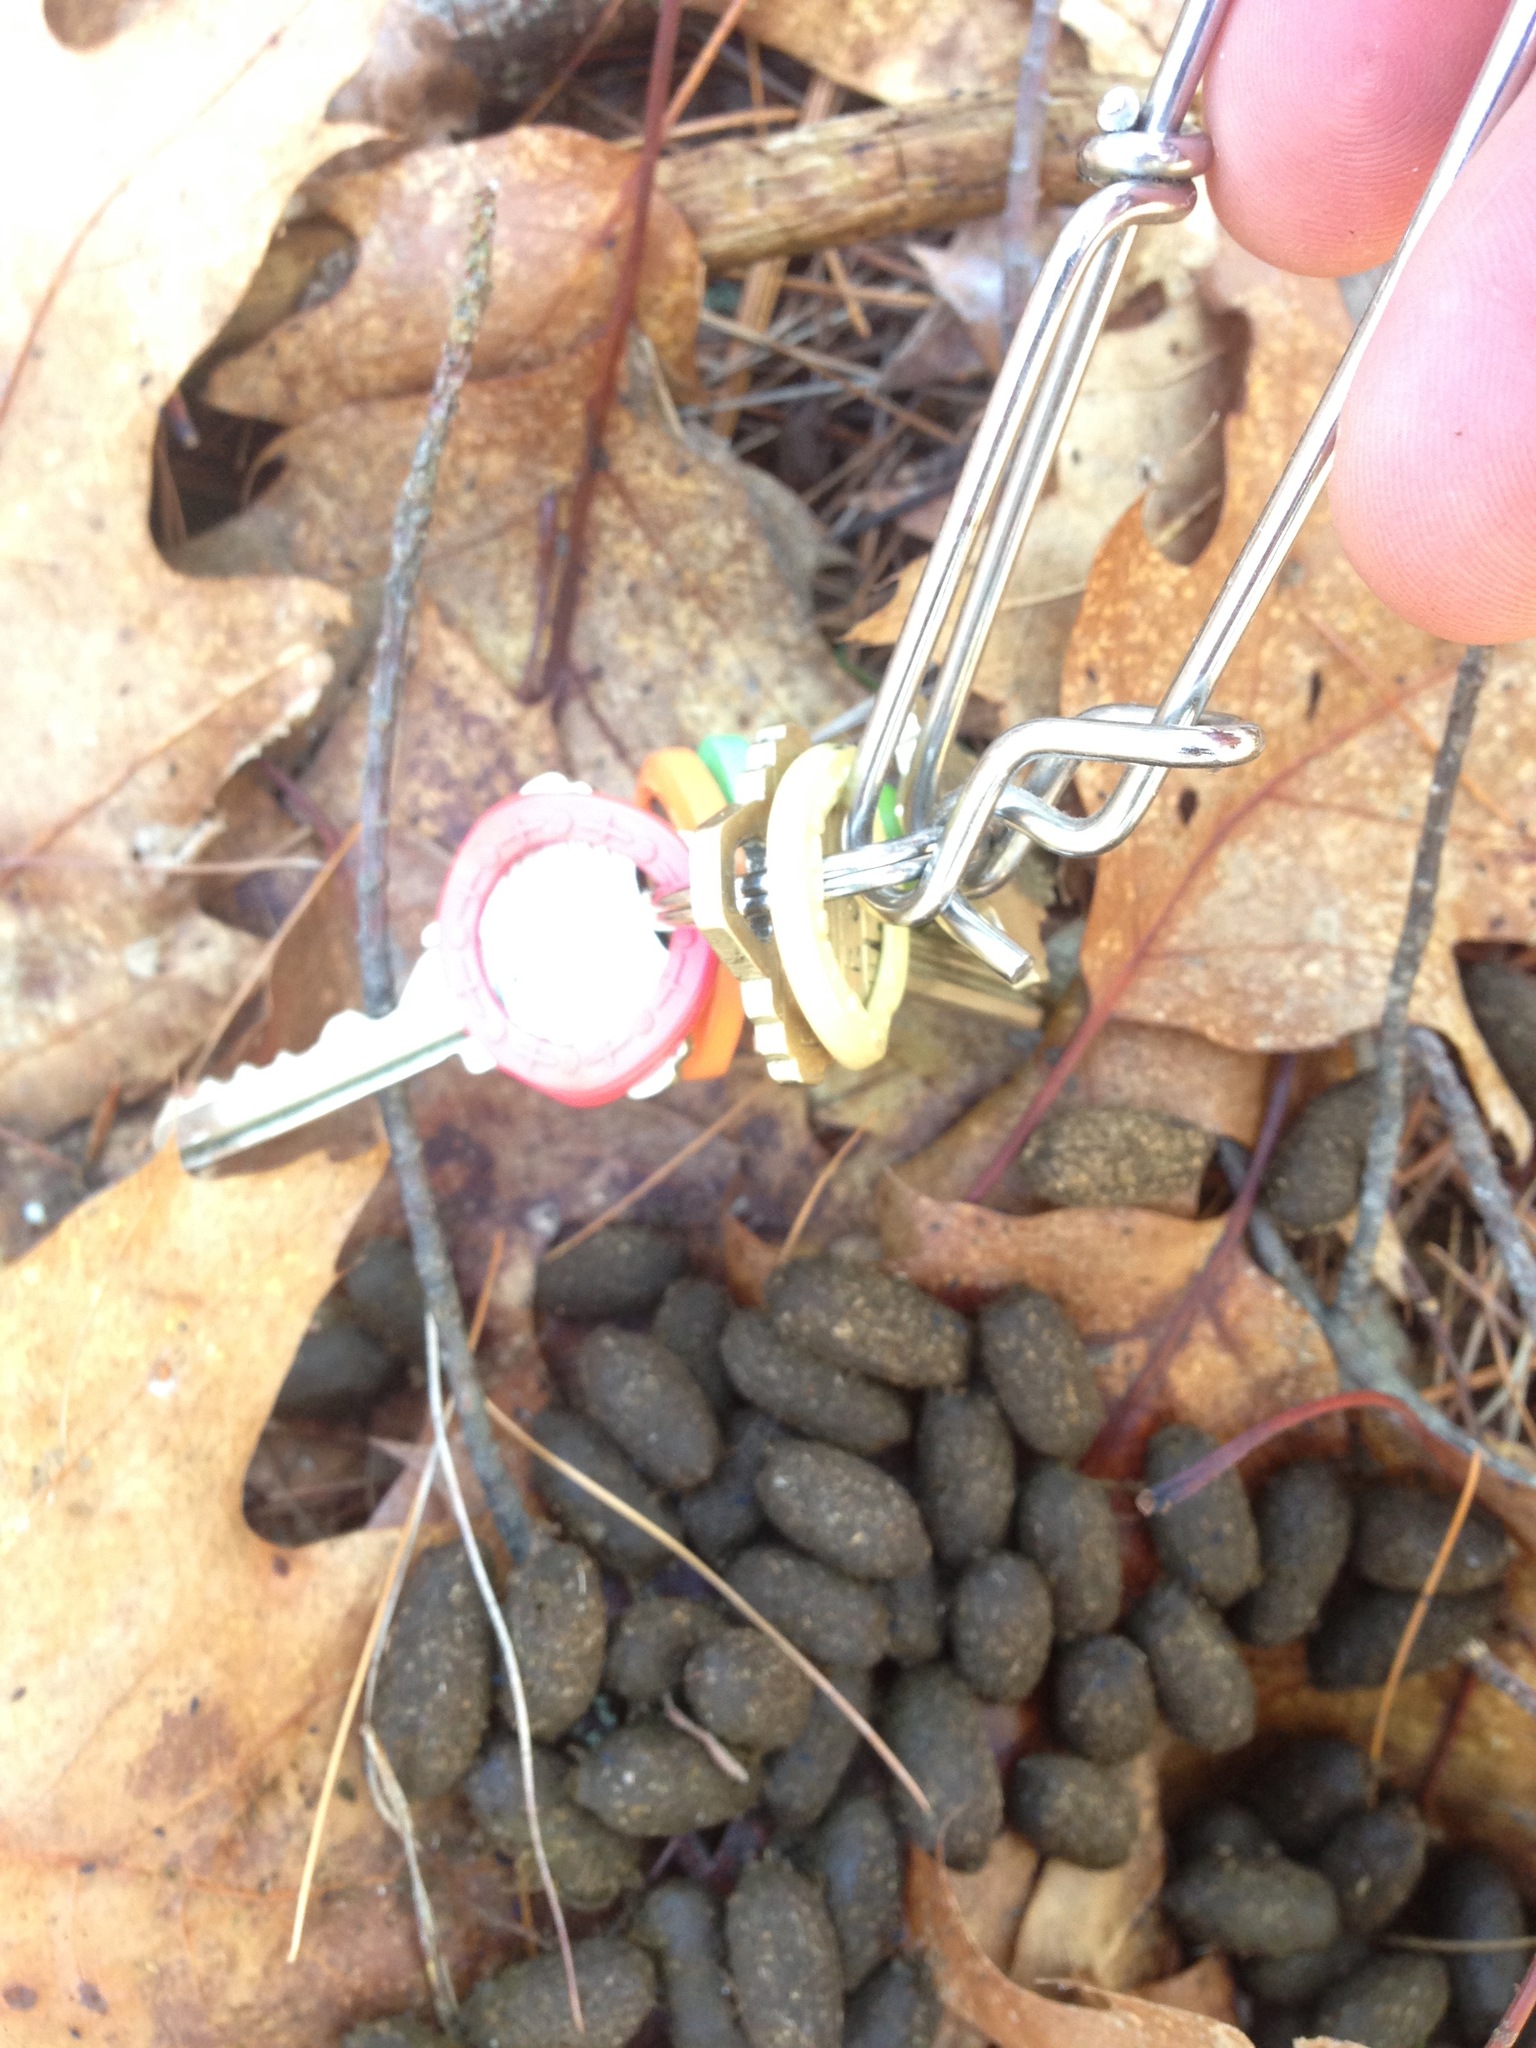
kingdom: Animalia
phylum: Chordata
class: Mammalia
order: Rodentia
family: Erethizontidae
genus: Erethizon
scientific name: Erethizon dorsatus
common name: North american porcupine
